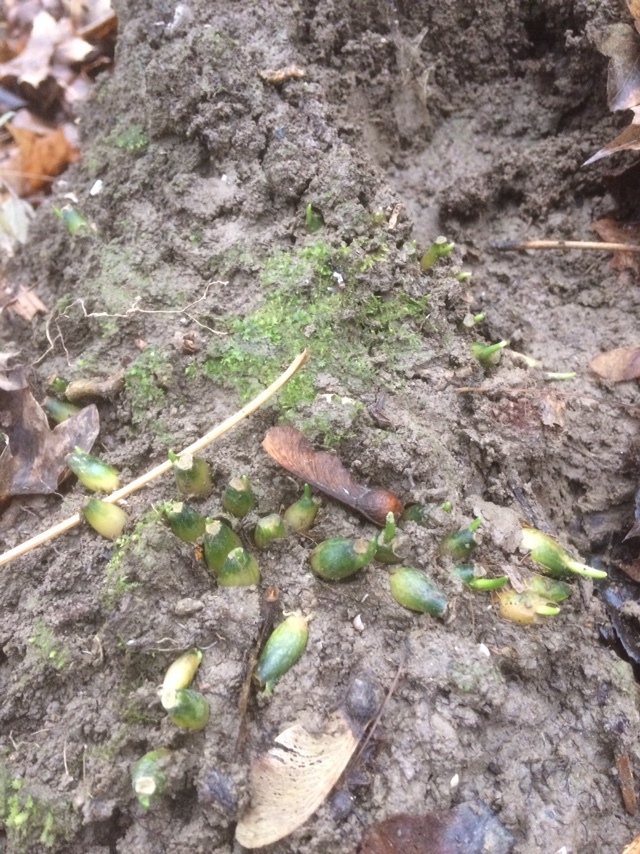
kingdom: Plantae
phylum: Tracheophyta
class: Liliopsida
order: Asparagales
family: Amaryllidaceae
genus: Allium
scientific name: Allium ursinum
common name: Ramsons
